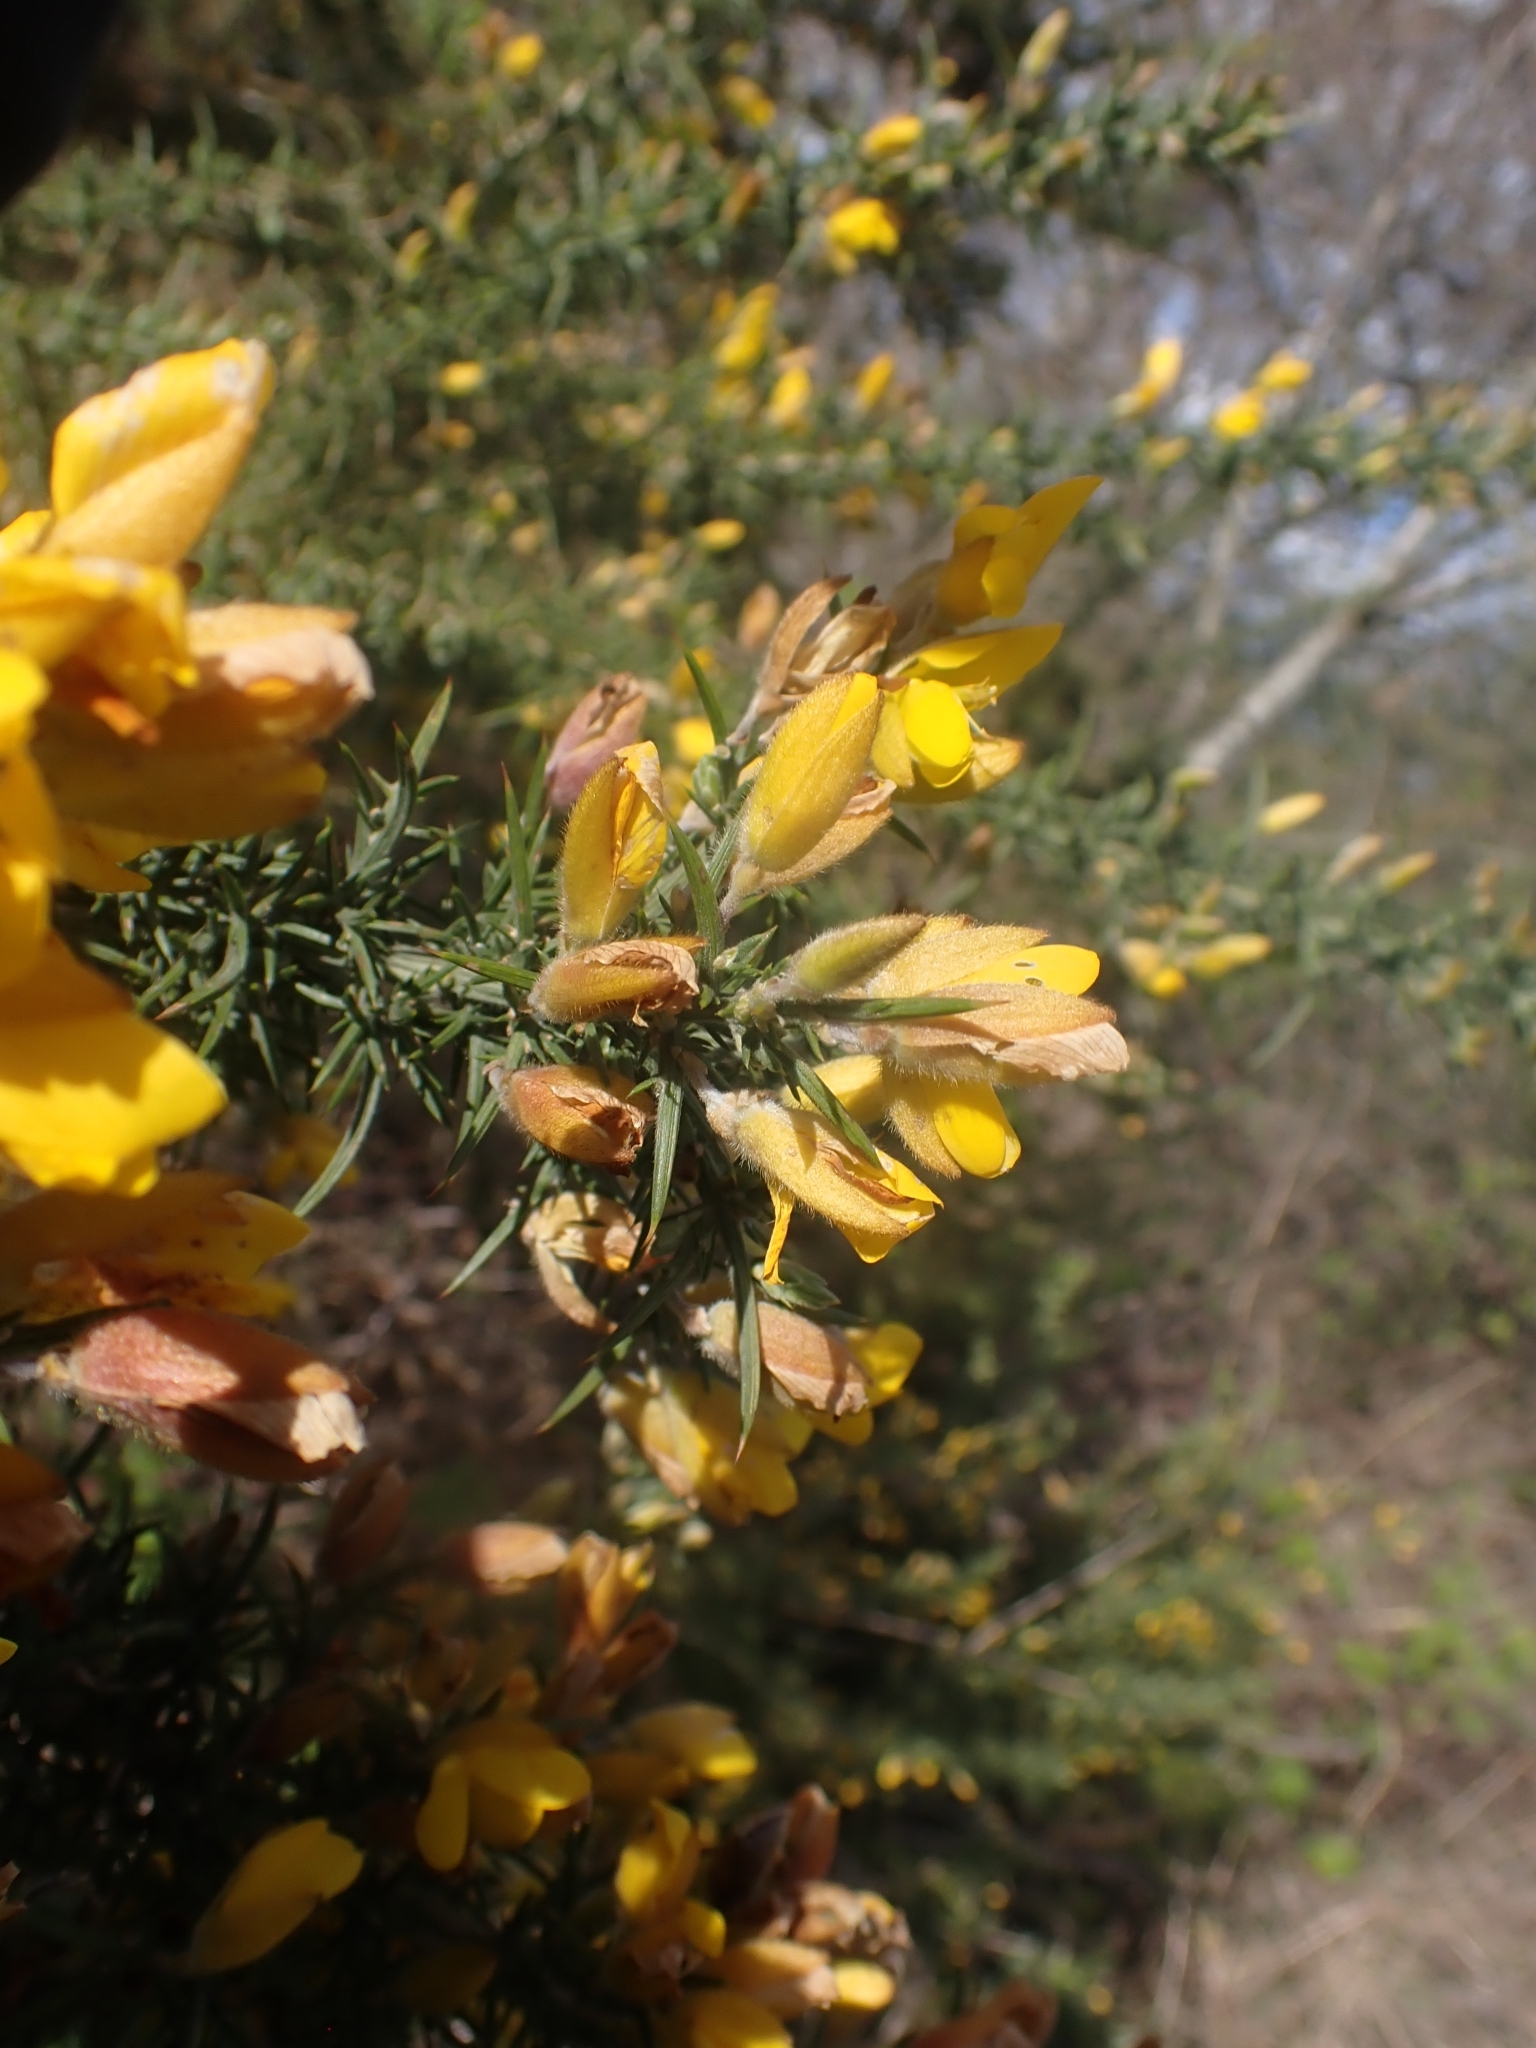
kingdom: Plantae
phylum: Tracheophyta
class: Magnoliopsida
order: Fabales
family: Fabaceae
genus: Ulex
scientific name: Ulex europaeus
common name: Common gorse
